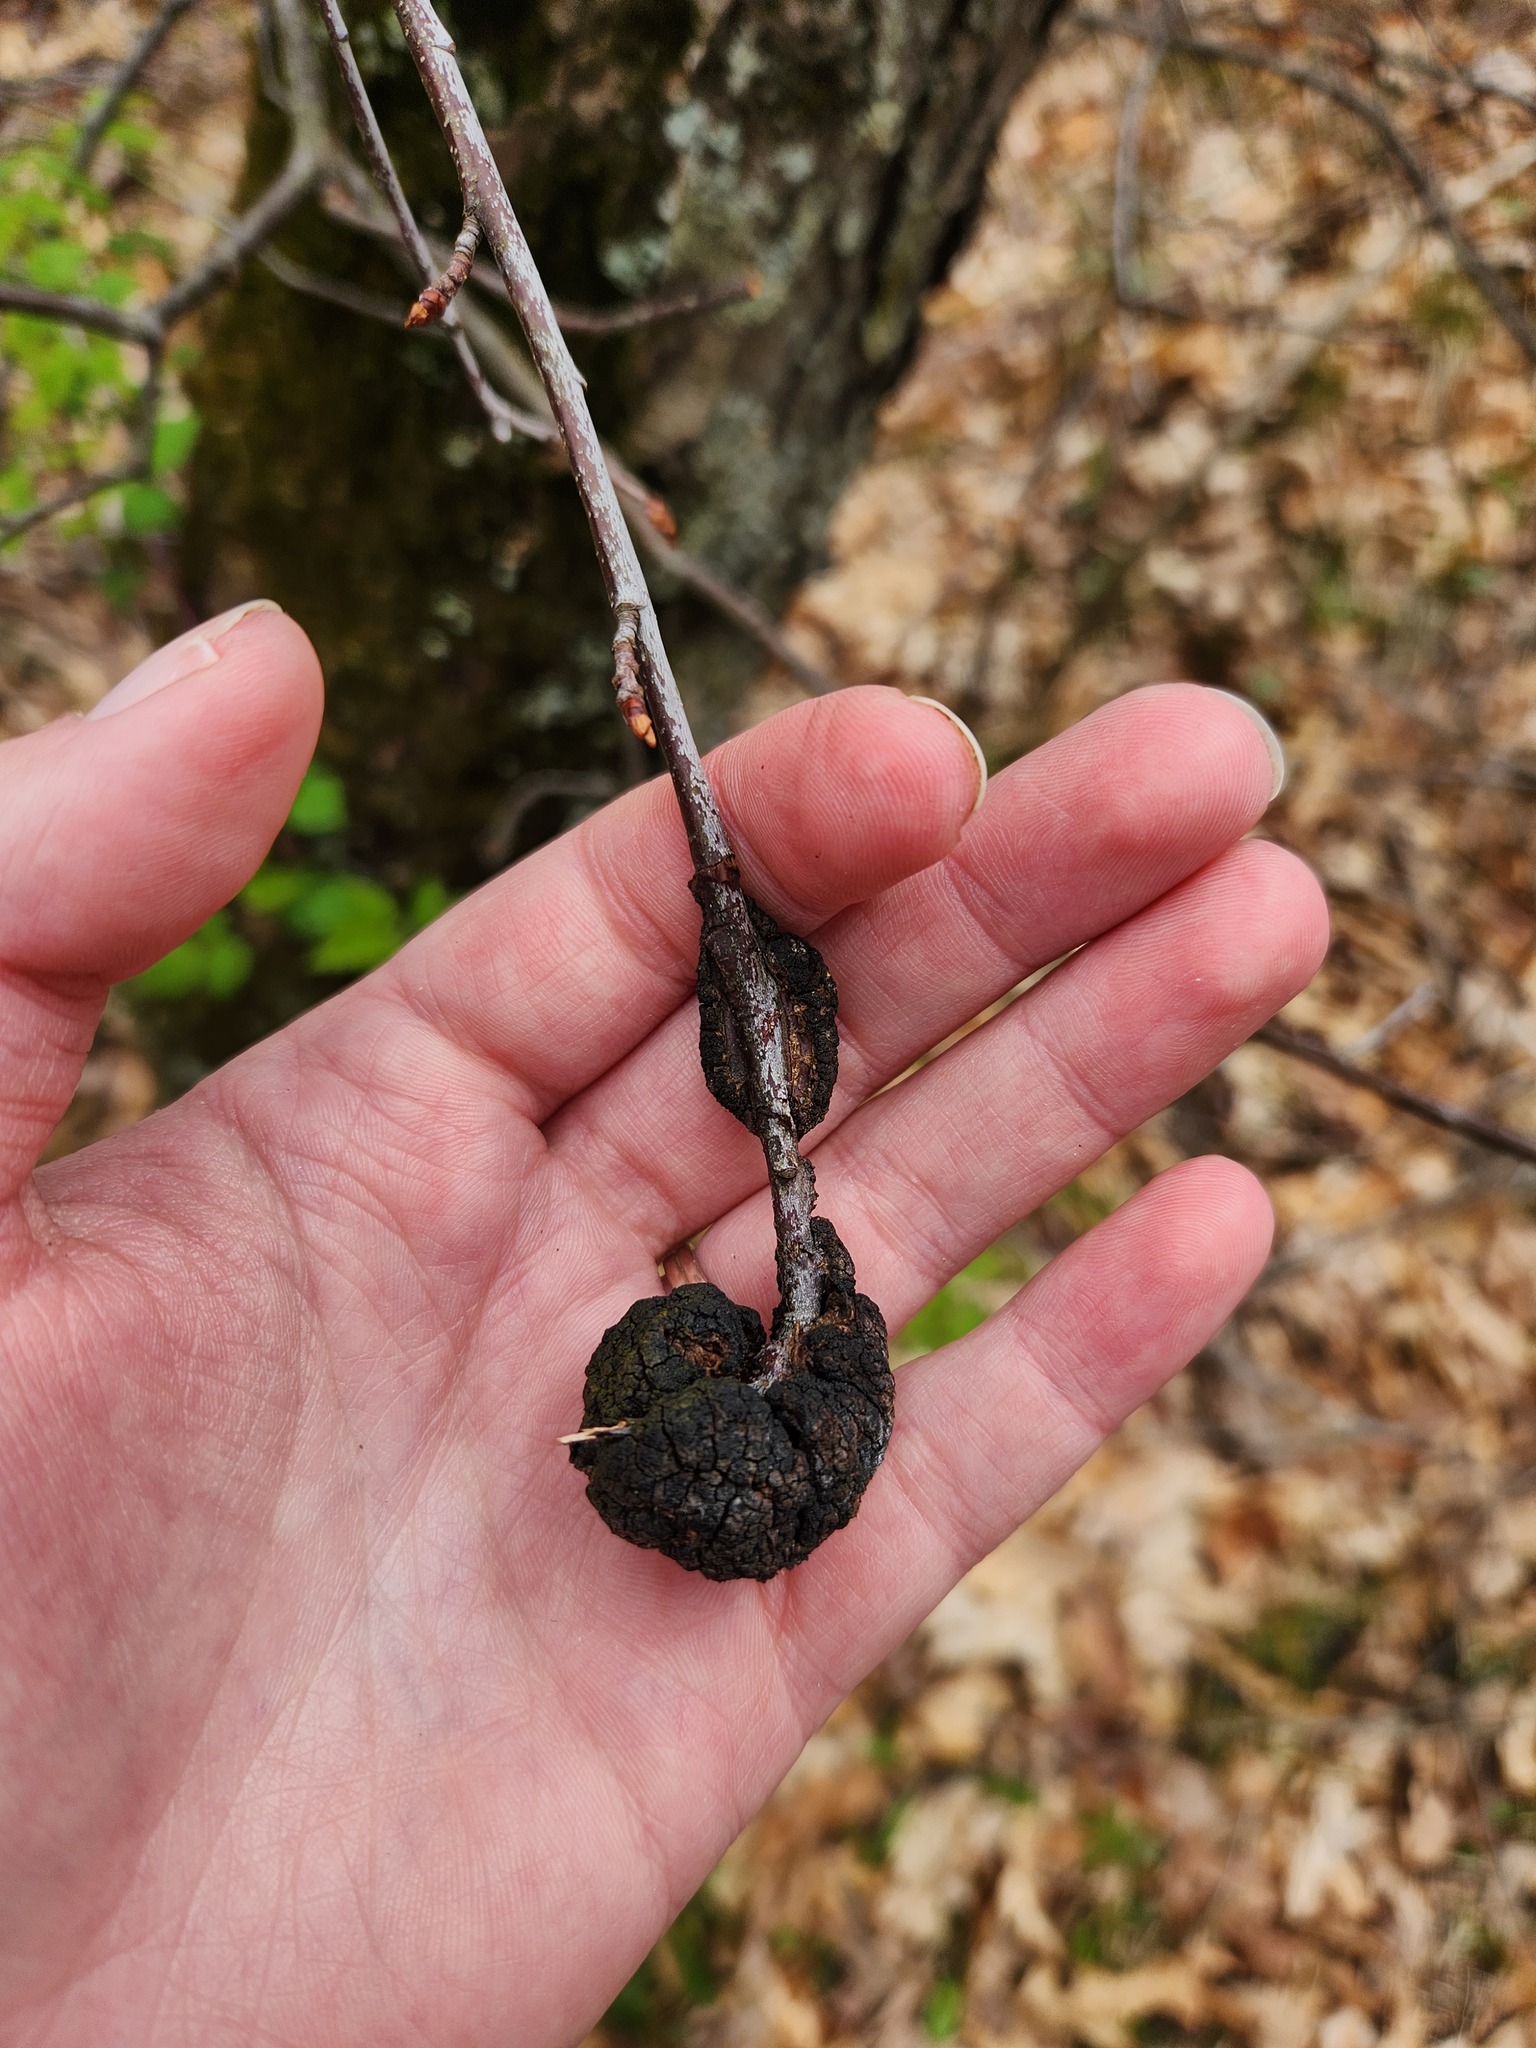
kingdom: Fungi
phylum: Ascomycota
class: Dothideomycetes
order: Venturiales
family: Venturiaceae
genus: Apiosporina
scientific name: Apiosporina morbosa
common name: Black knot
